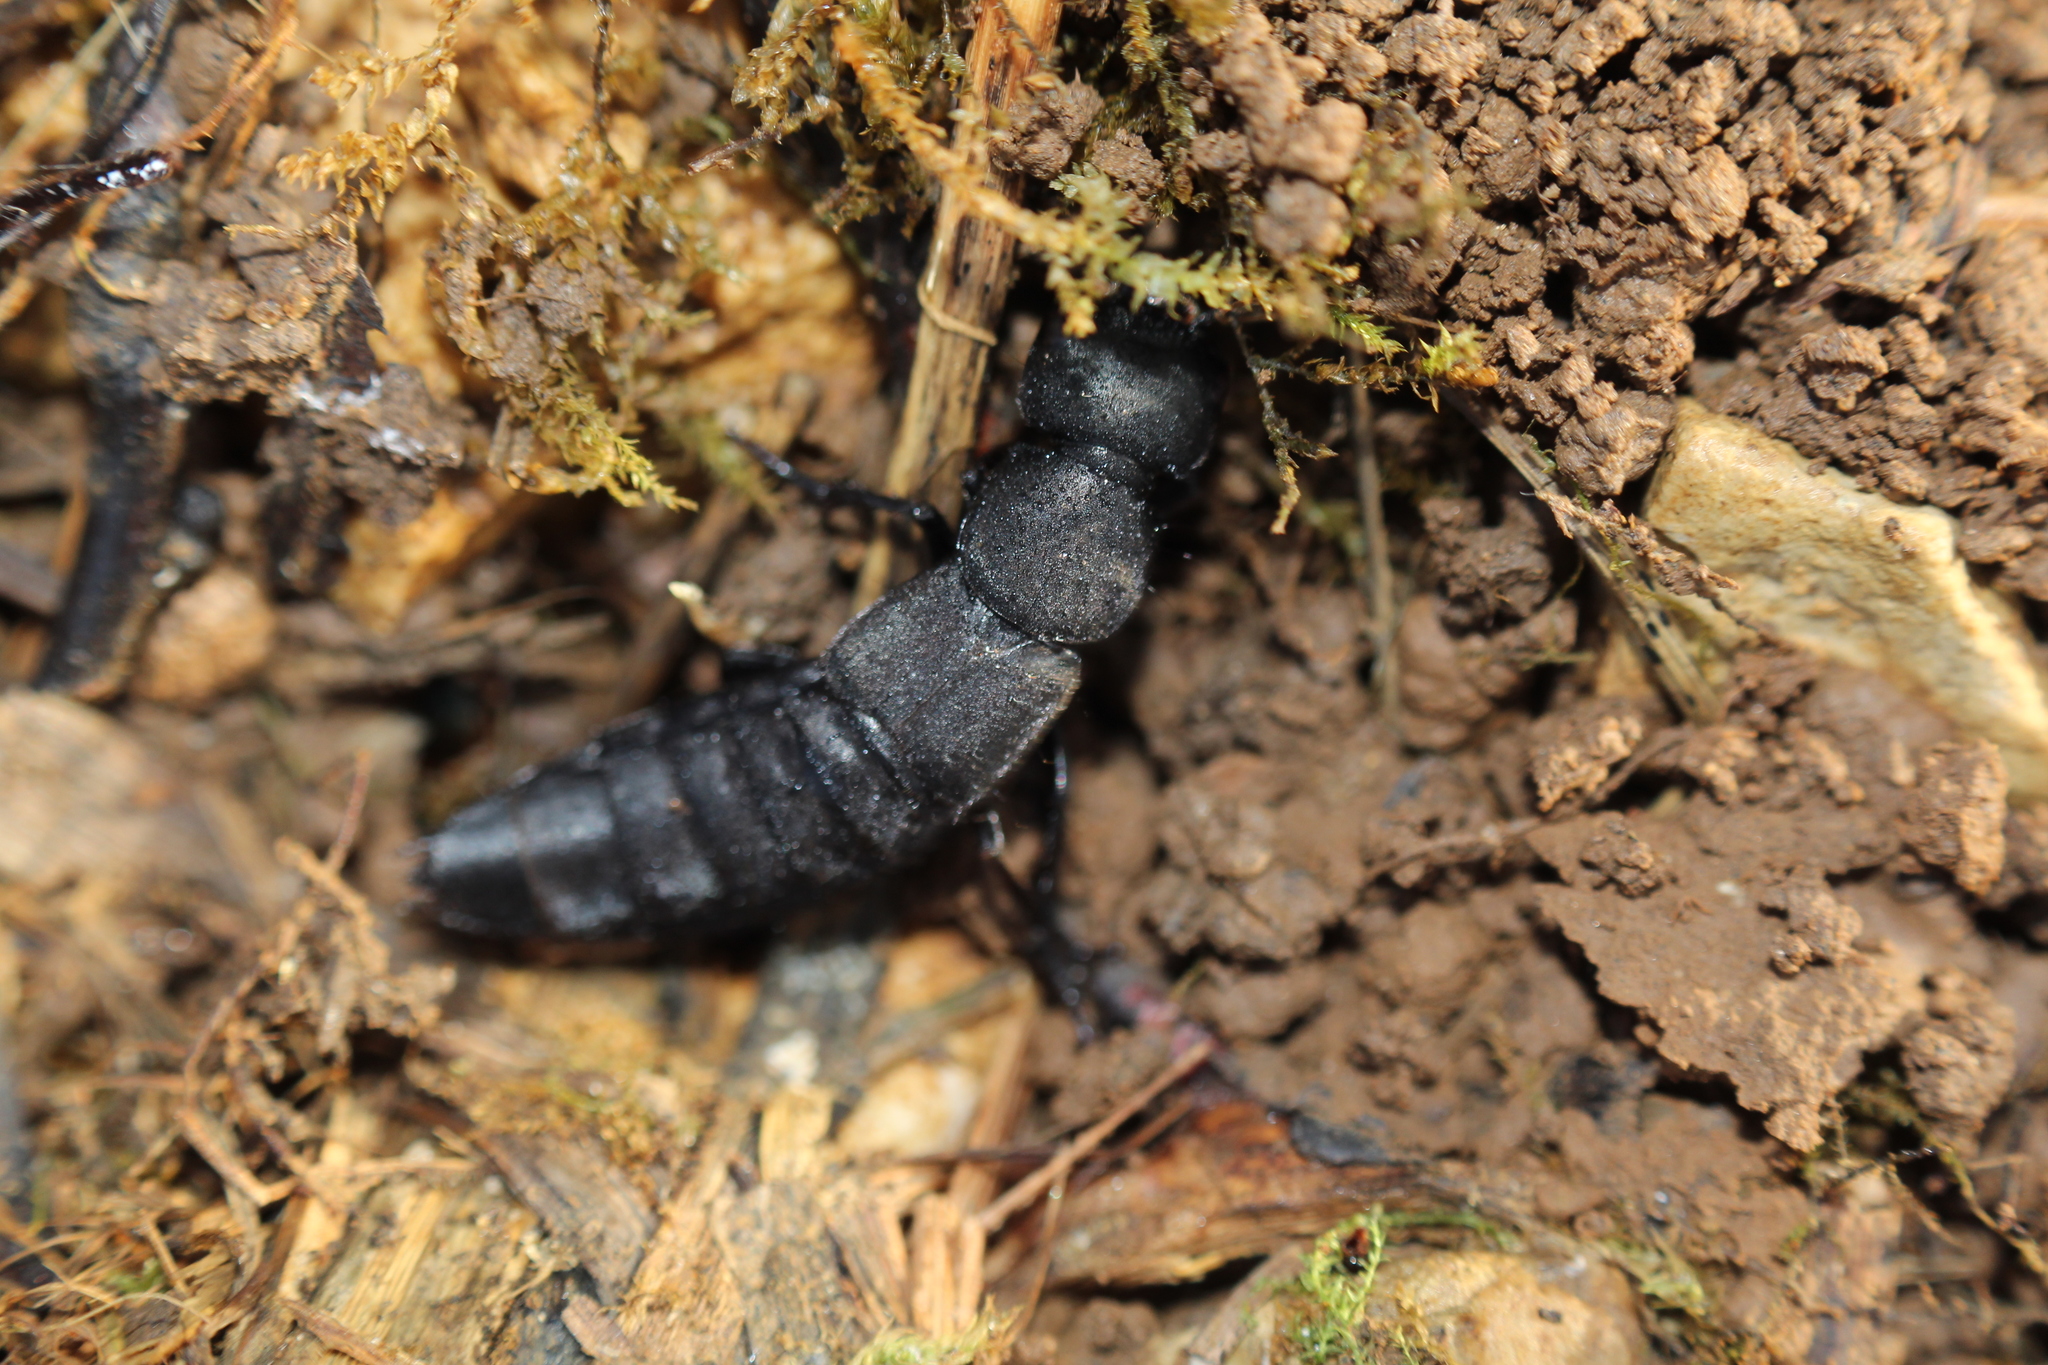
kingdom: Animalia
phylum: Arthropoda
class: Insecta
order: Coleoptera
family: Staphylinidae
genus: Ocypus
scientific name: Ocypus olens
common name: Devil's coach-horse
